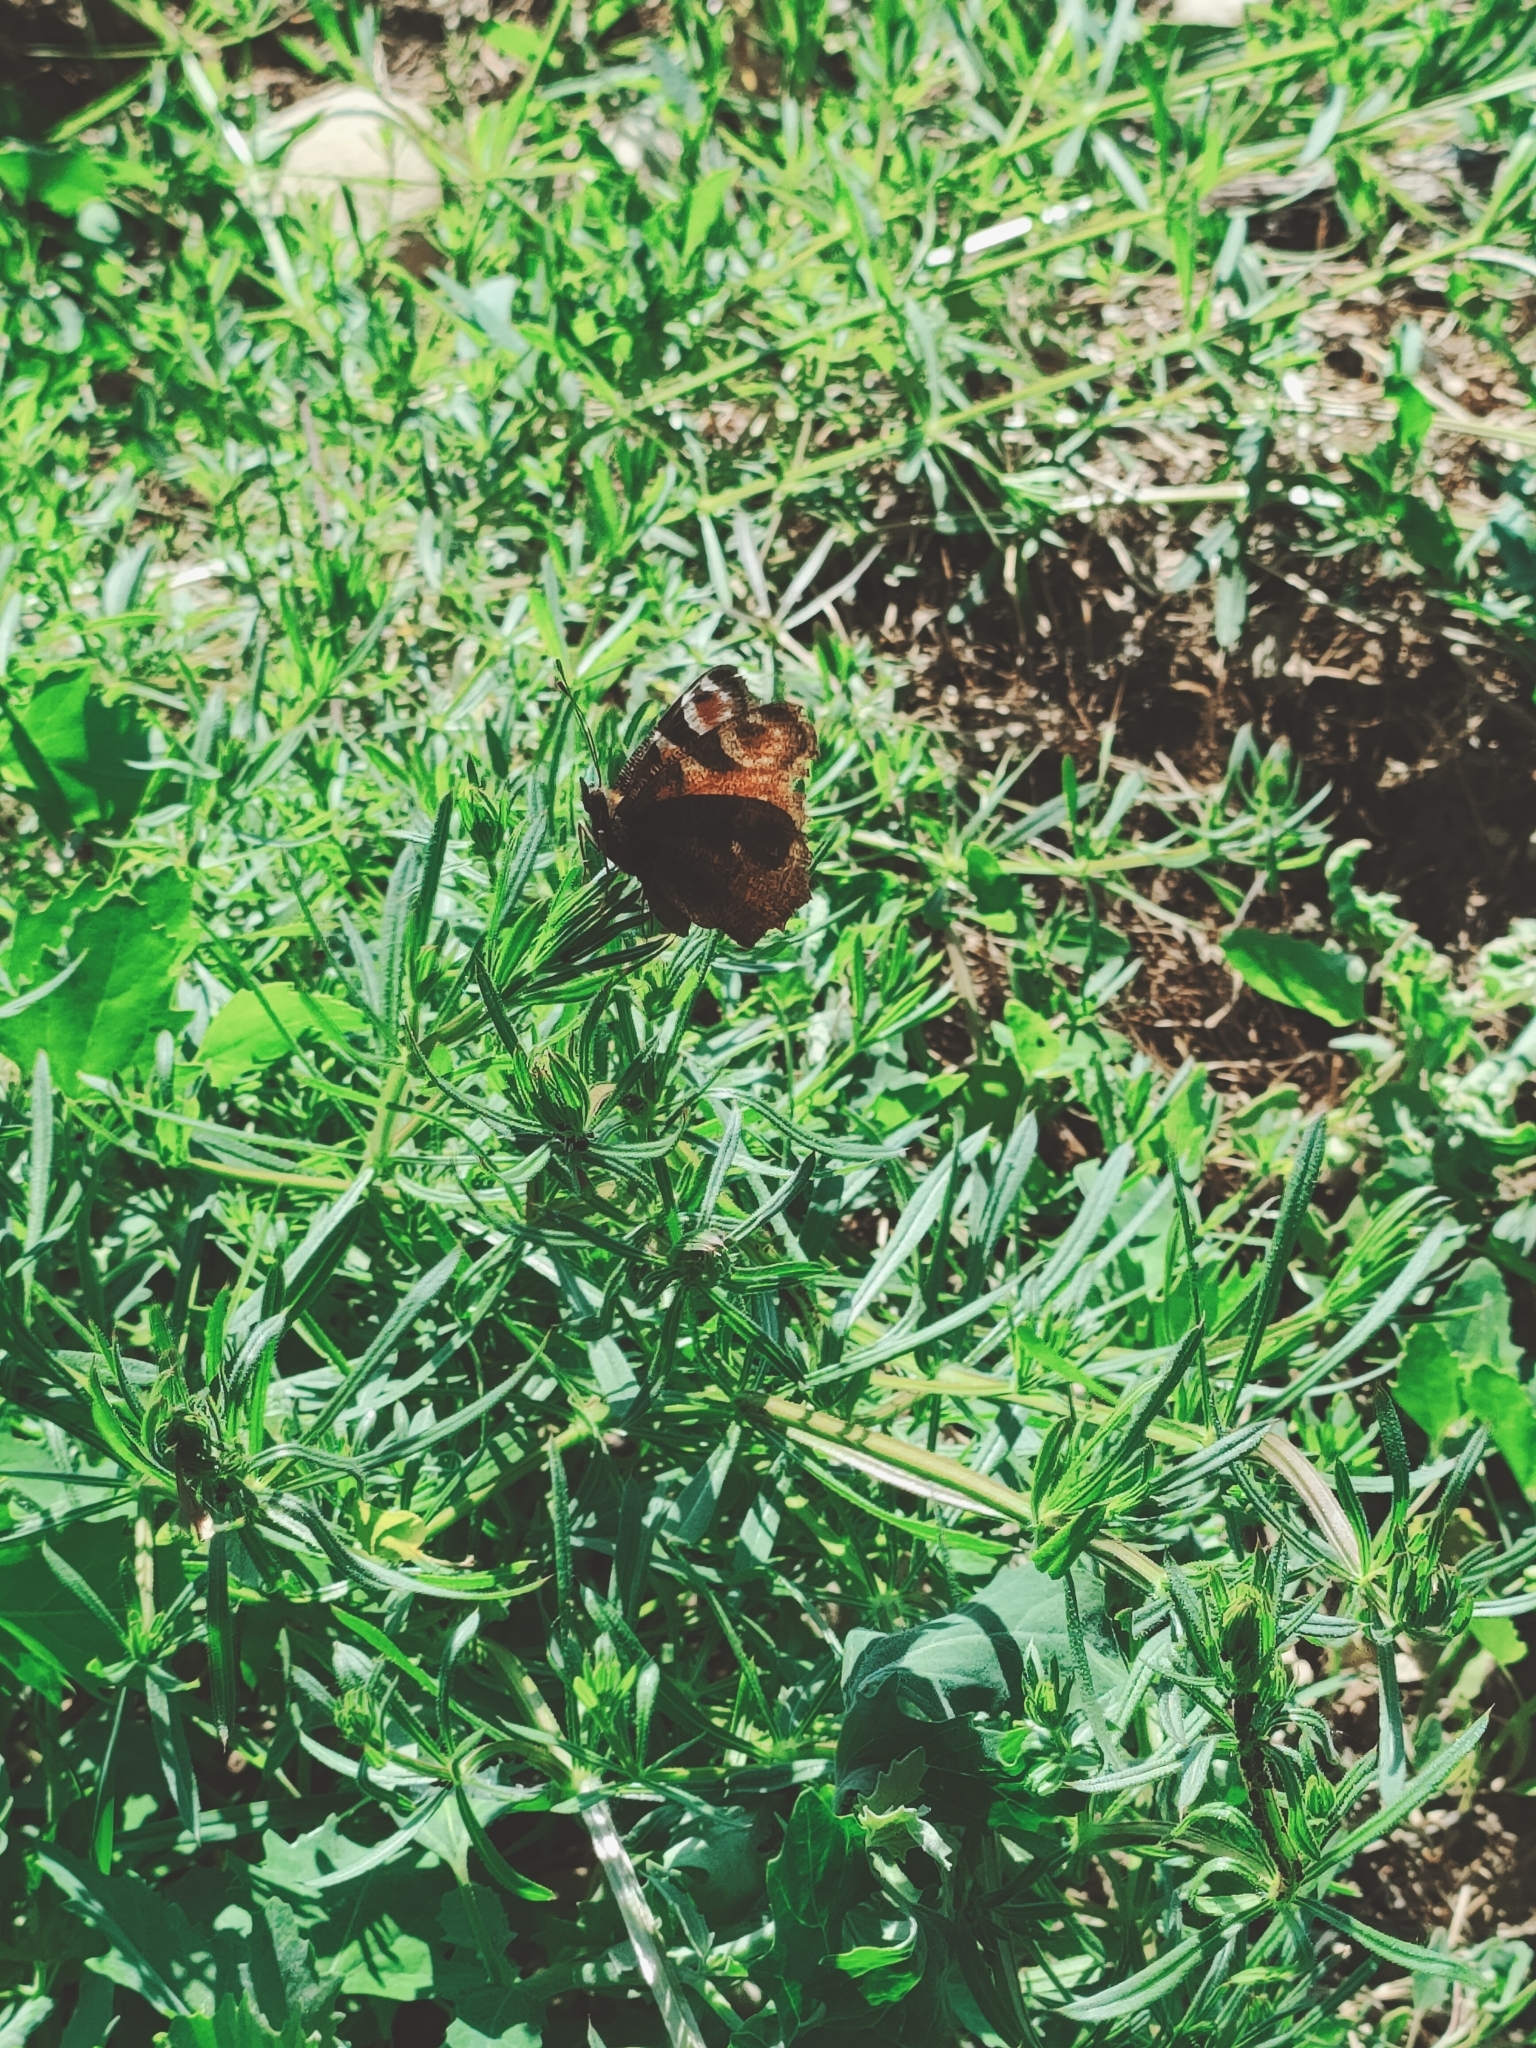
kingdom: Animalia
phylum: Arthropoda
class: Insecta
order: Lepidoptera
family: Nymphalidae
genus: Aglais
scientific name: Aglais io
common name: Peacock
